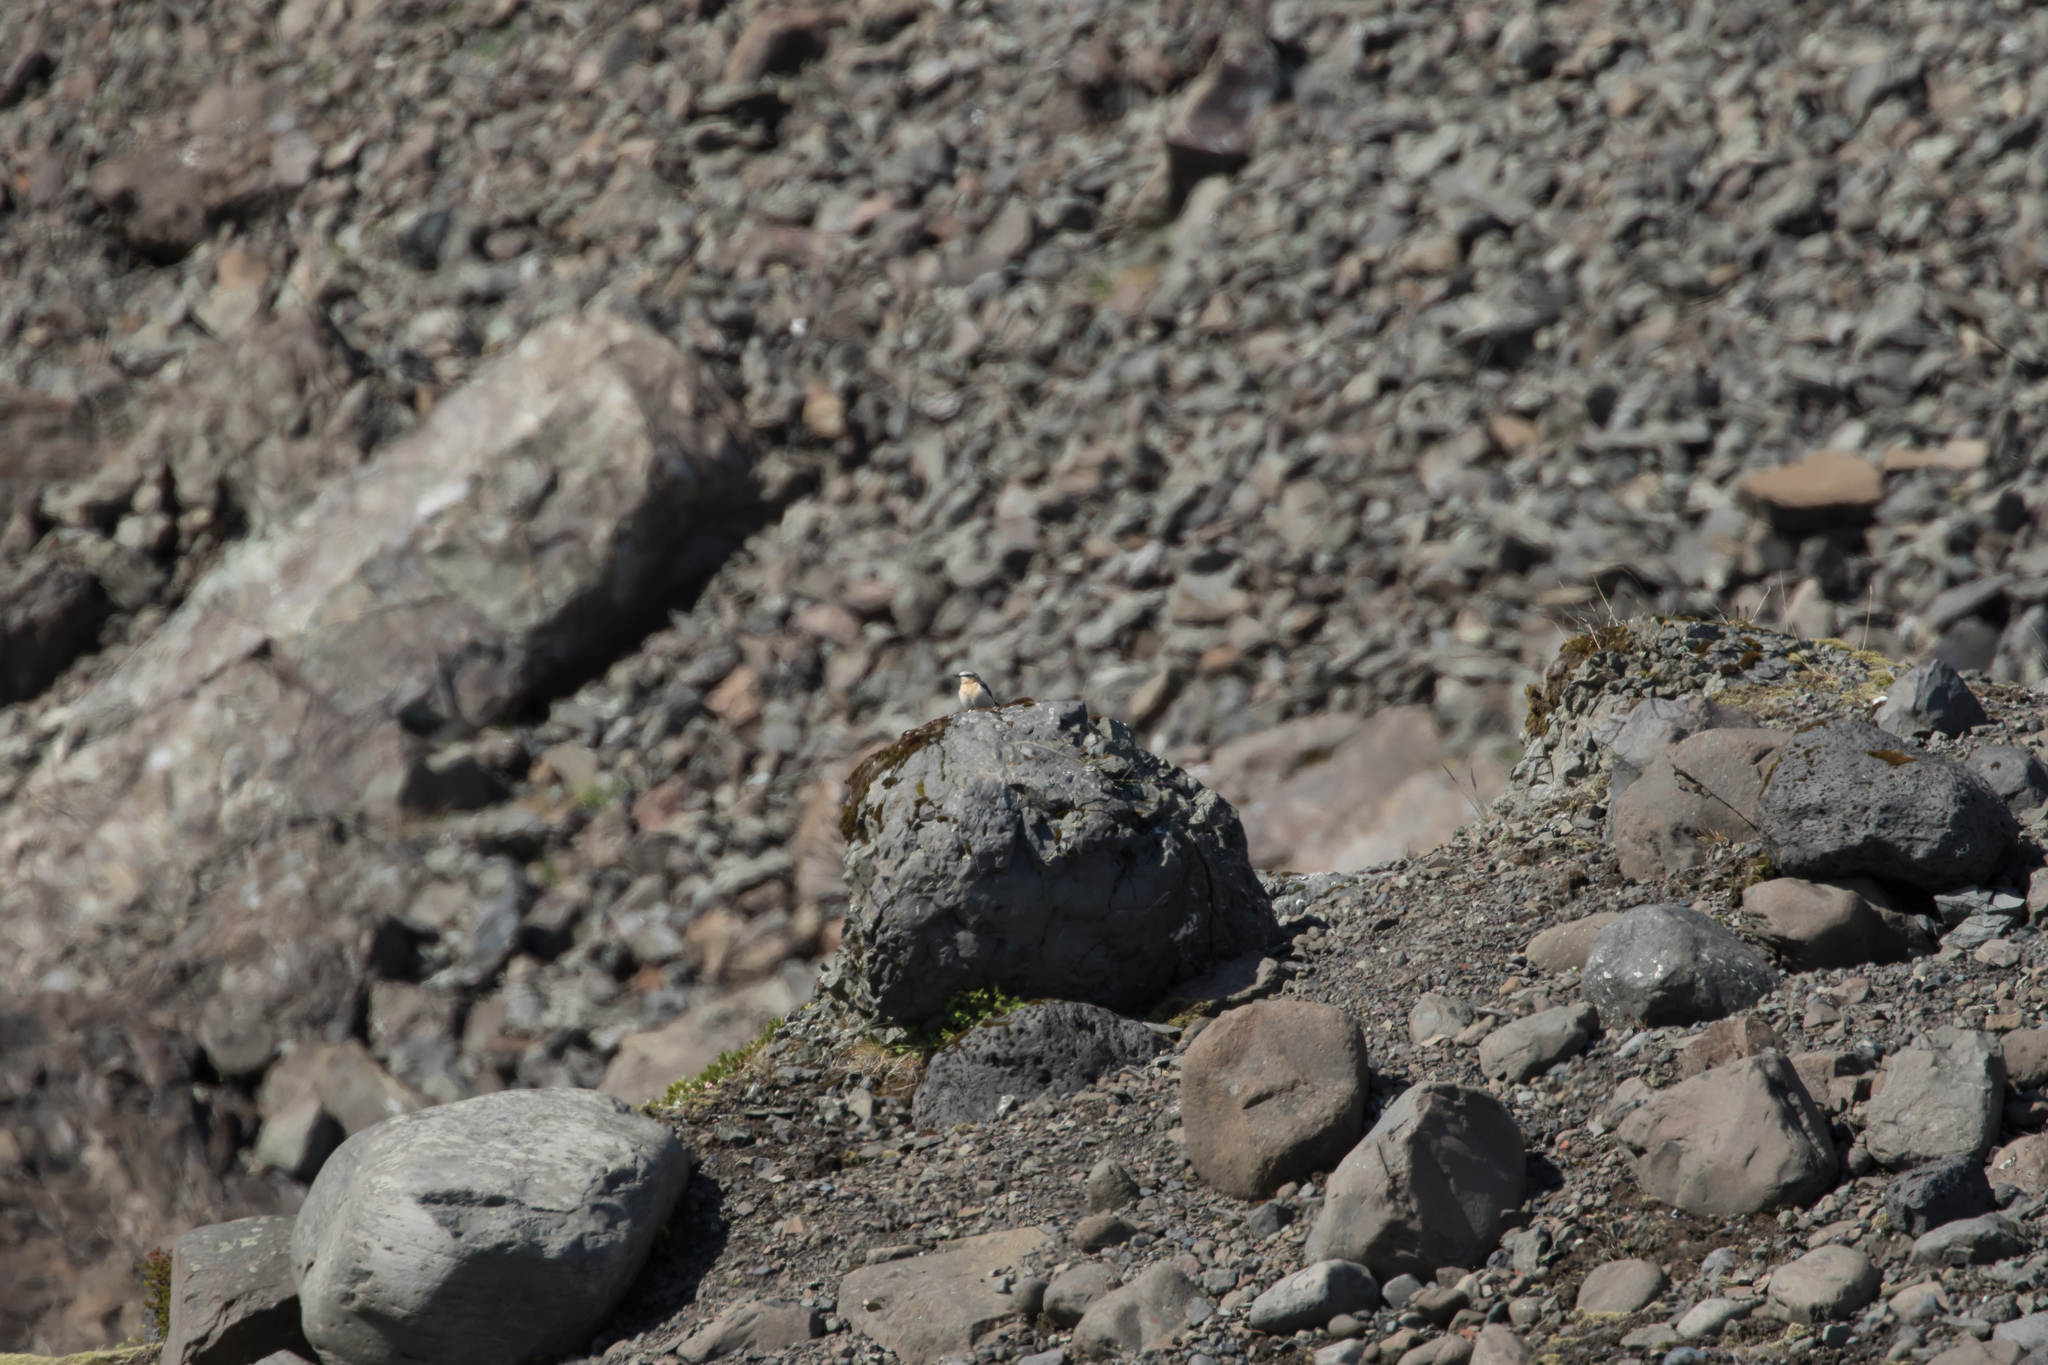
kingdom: Animalia
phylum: Chordata
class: Aves
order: Passeriformes
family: Muscicapidae
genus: Oenanthe
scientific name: Oenanthe oenanthe
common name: Northern wheatear
